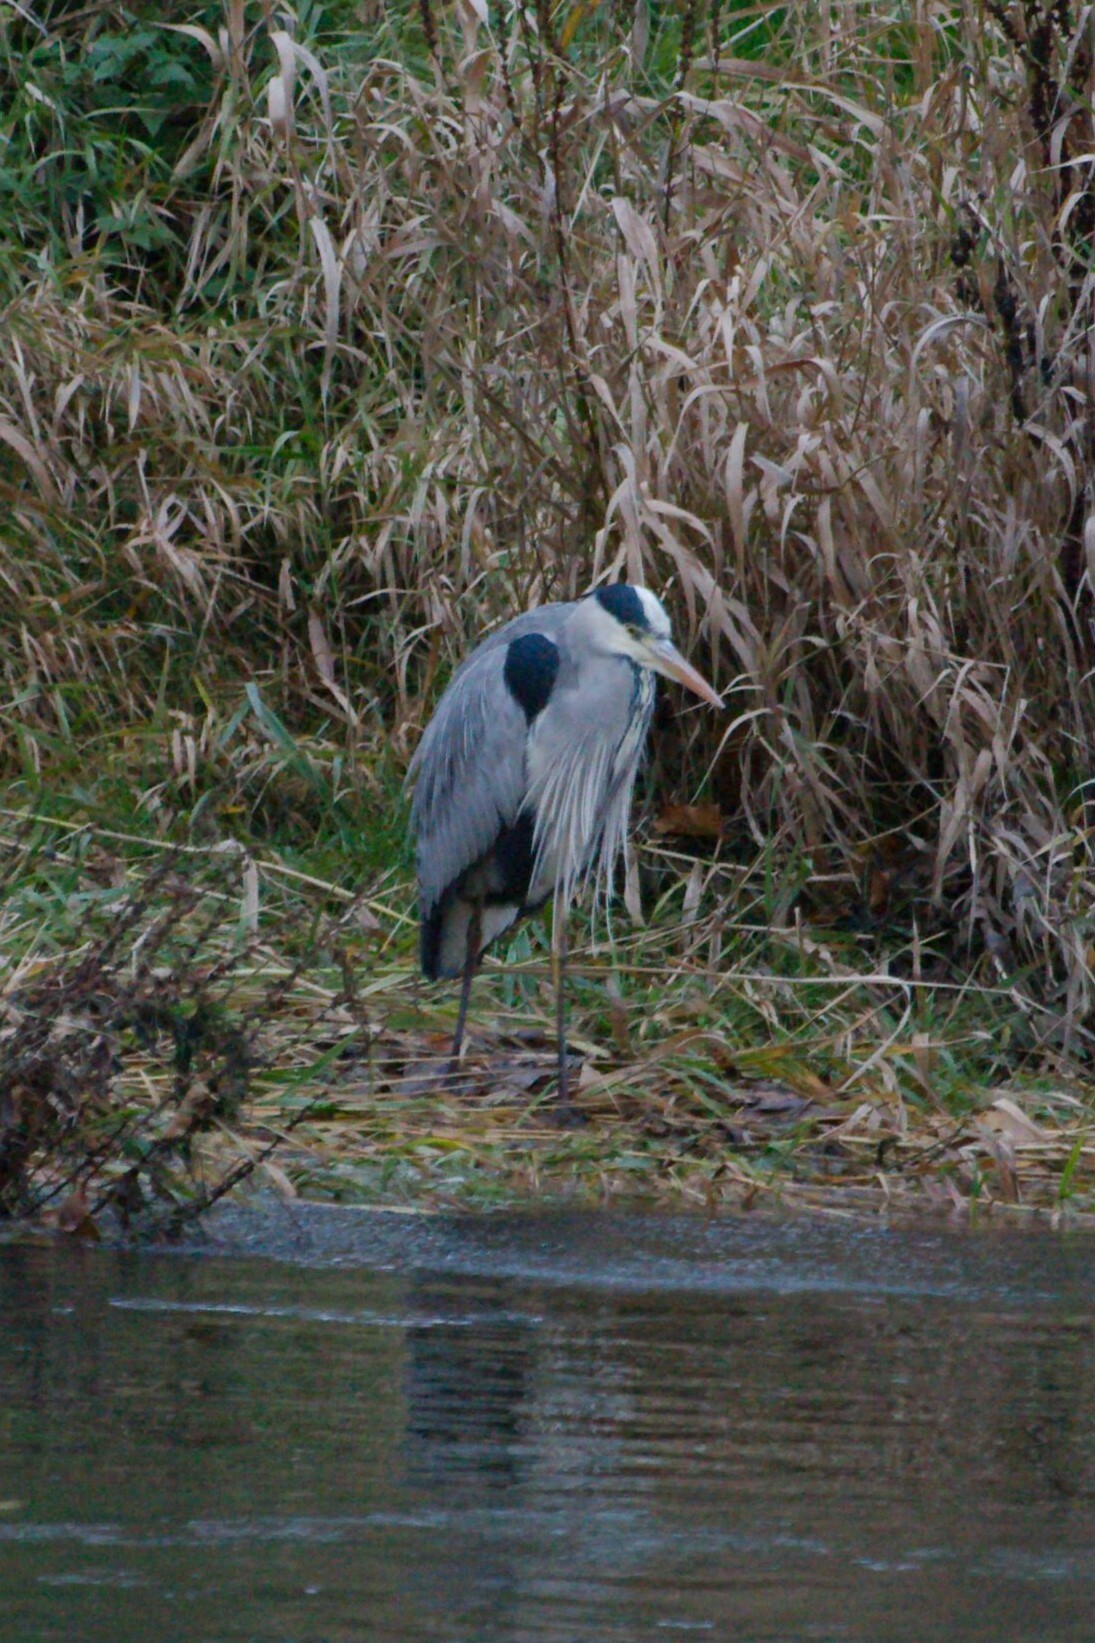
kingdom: Animalia
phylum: Chordata
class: Aves
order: Pelecaniformes
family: Ardeidae
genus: Ardea
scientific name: Ardea cinerea
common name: Grey heron
